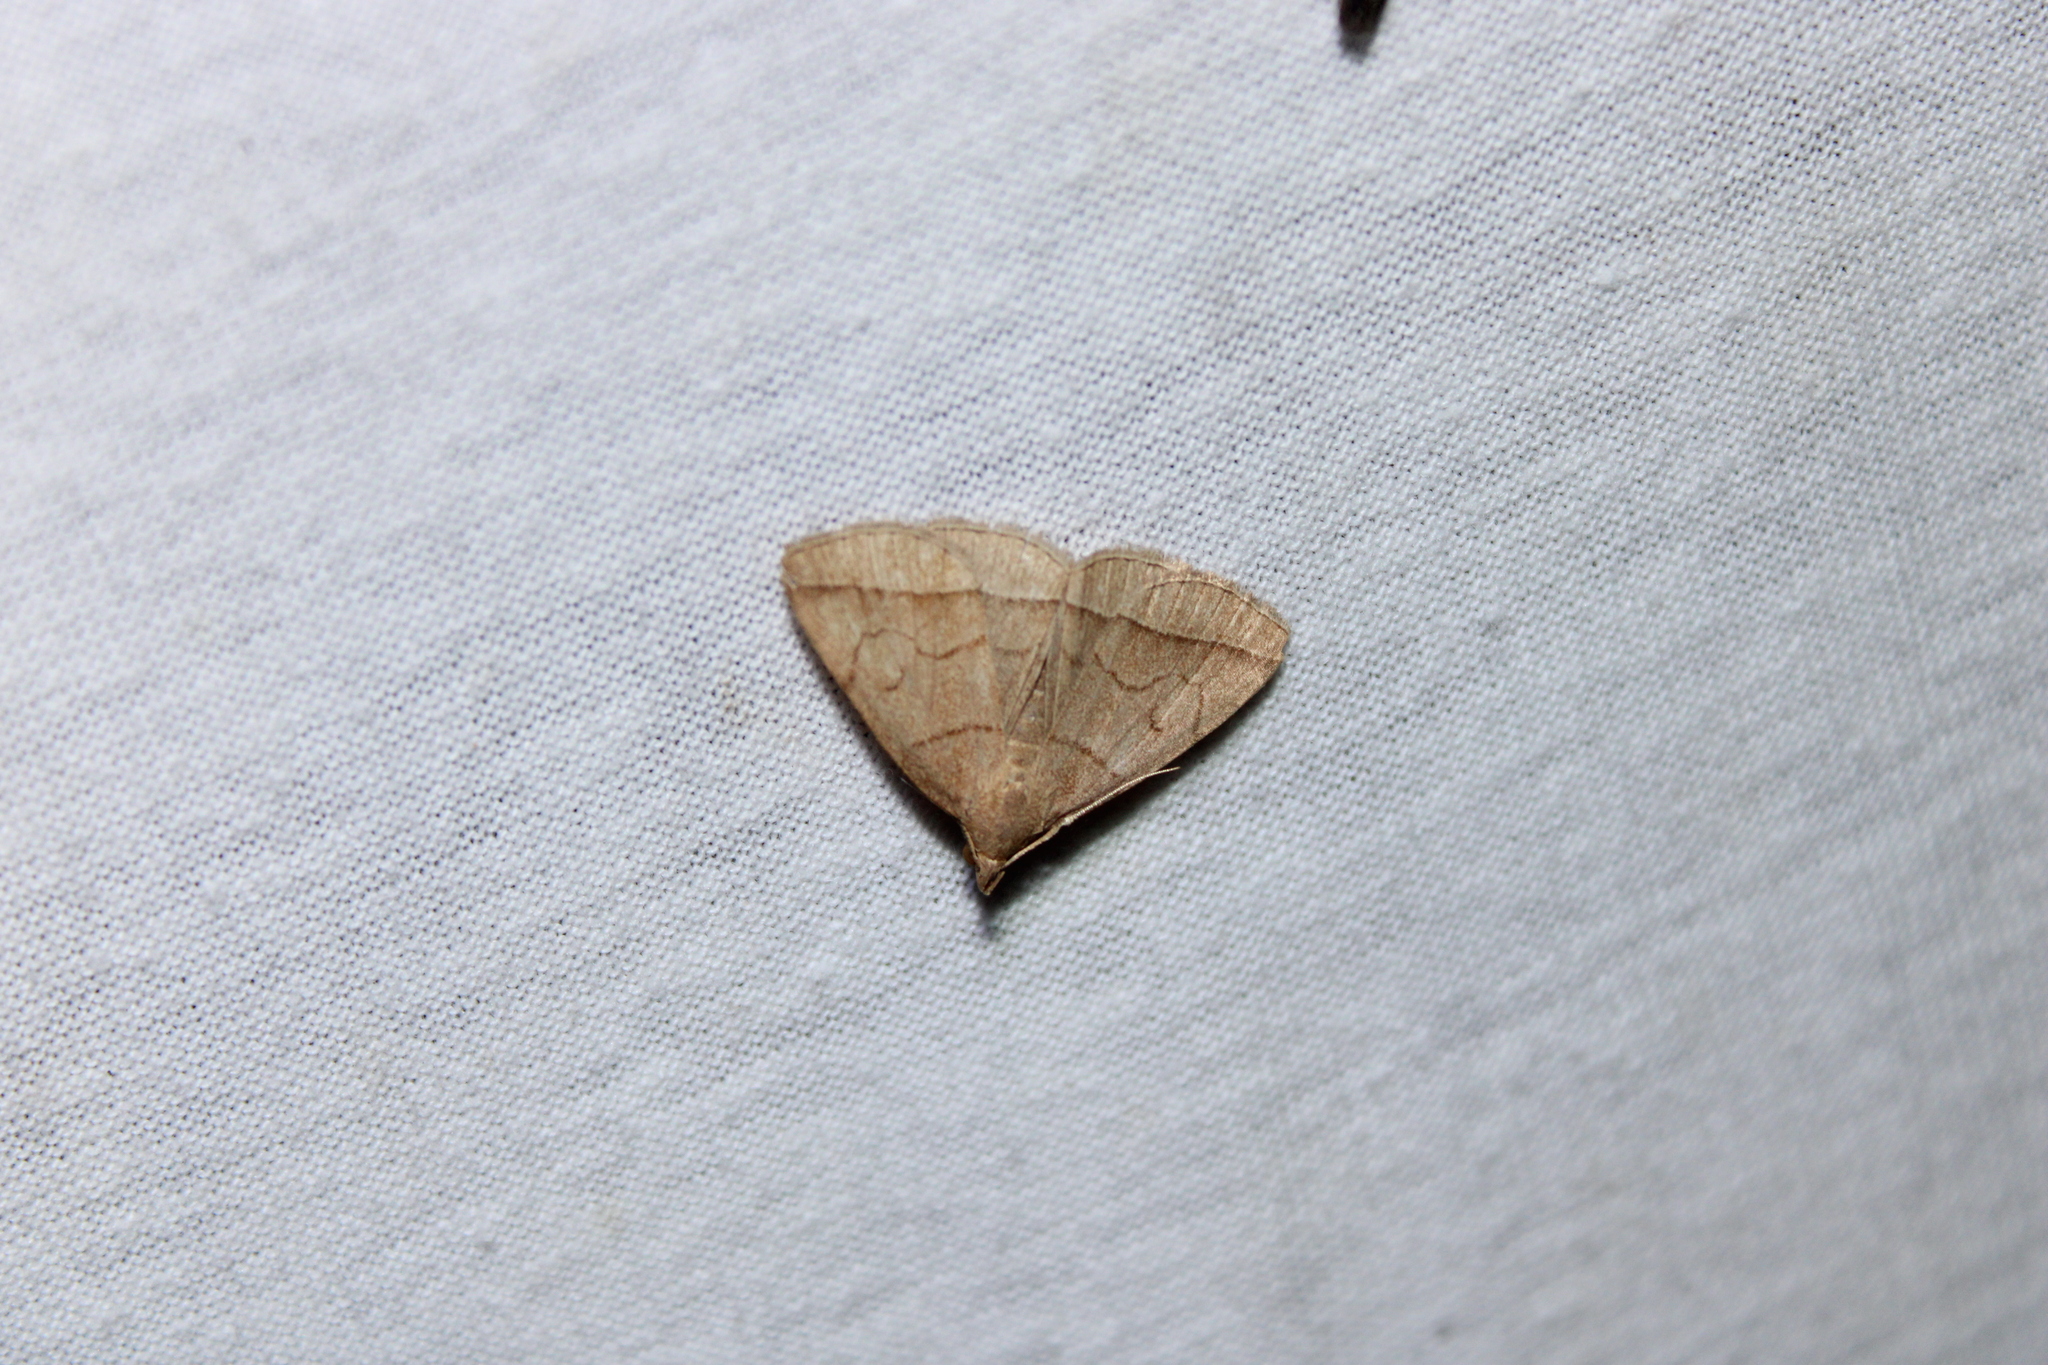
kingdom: Animalia
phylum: Arthropoda
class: Insecta
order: Lepidoptera
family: Erebidae
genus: Zanclognatha
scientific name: Zanclognatha cruralis
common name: Early fan-foot
